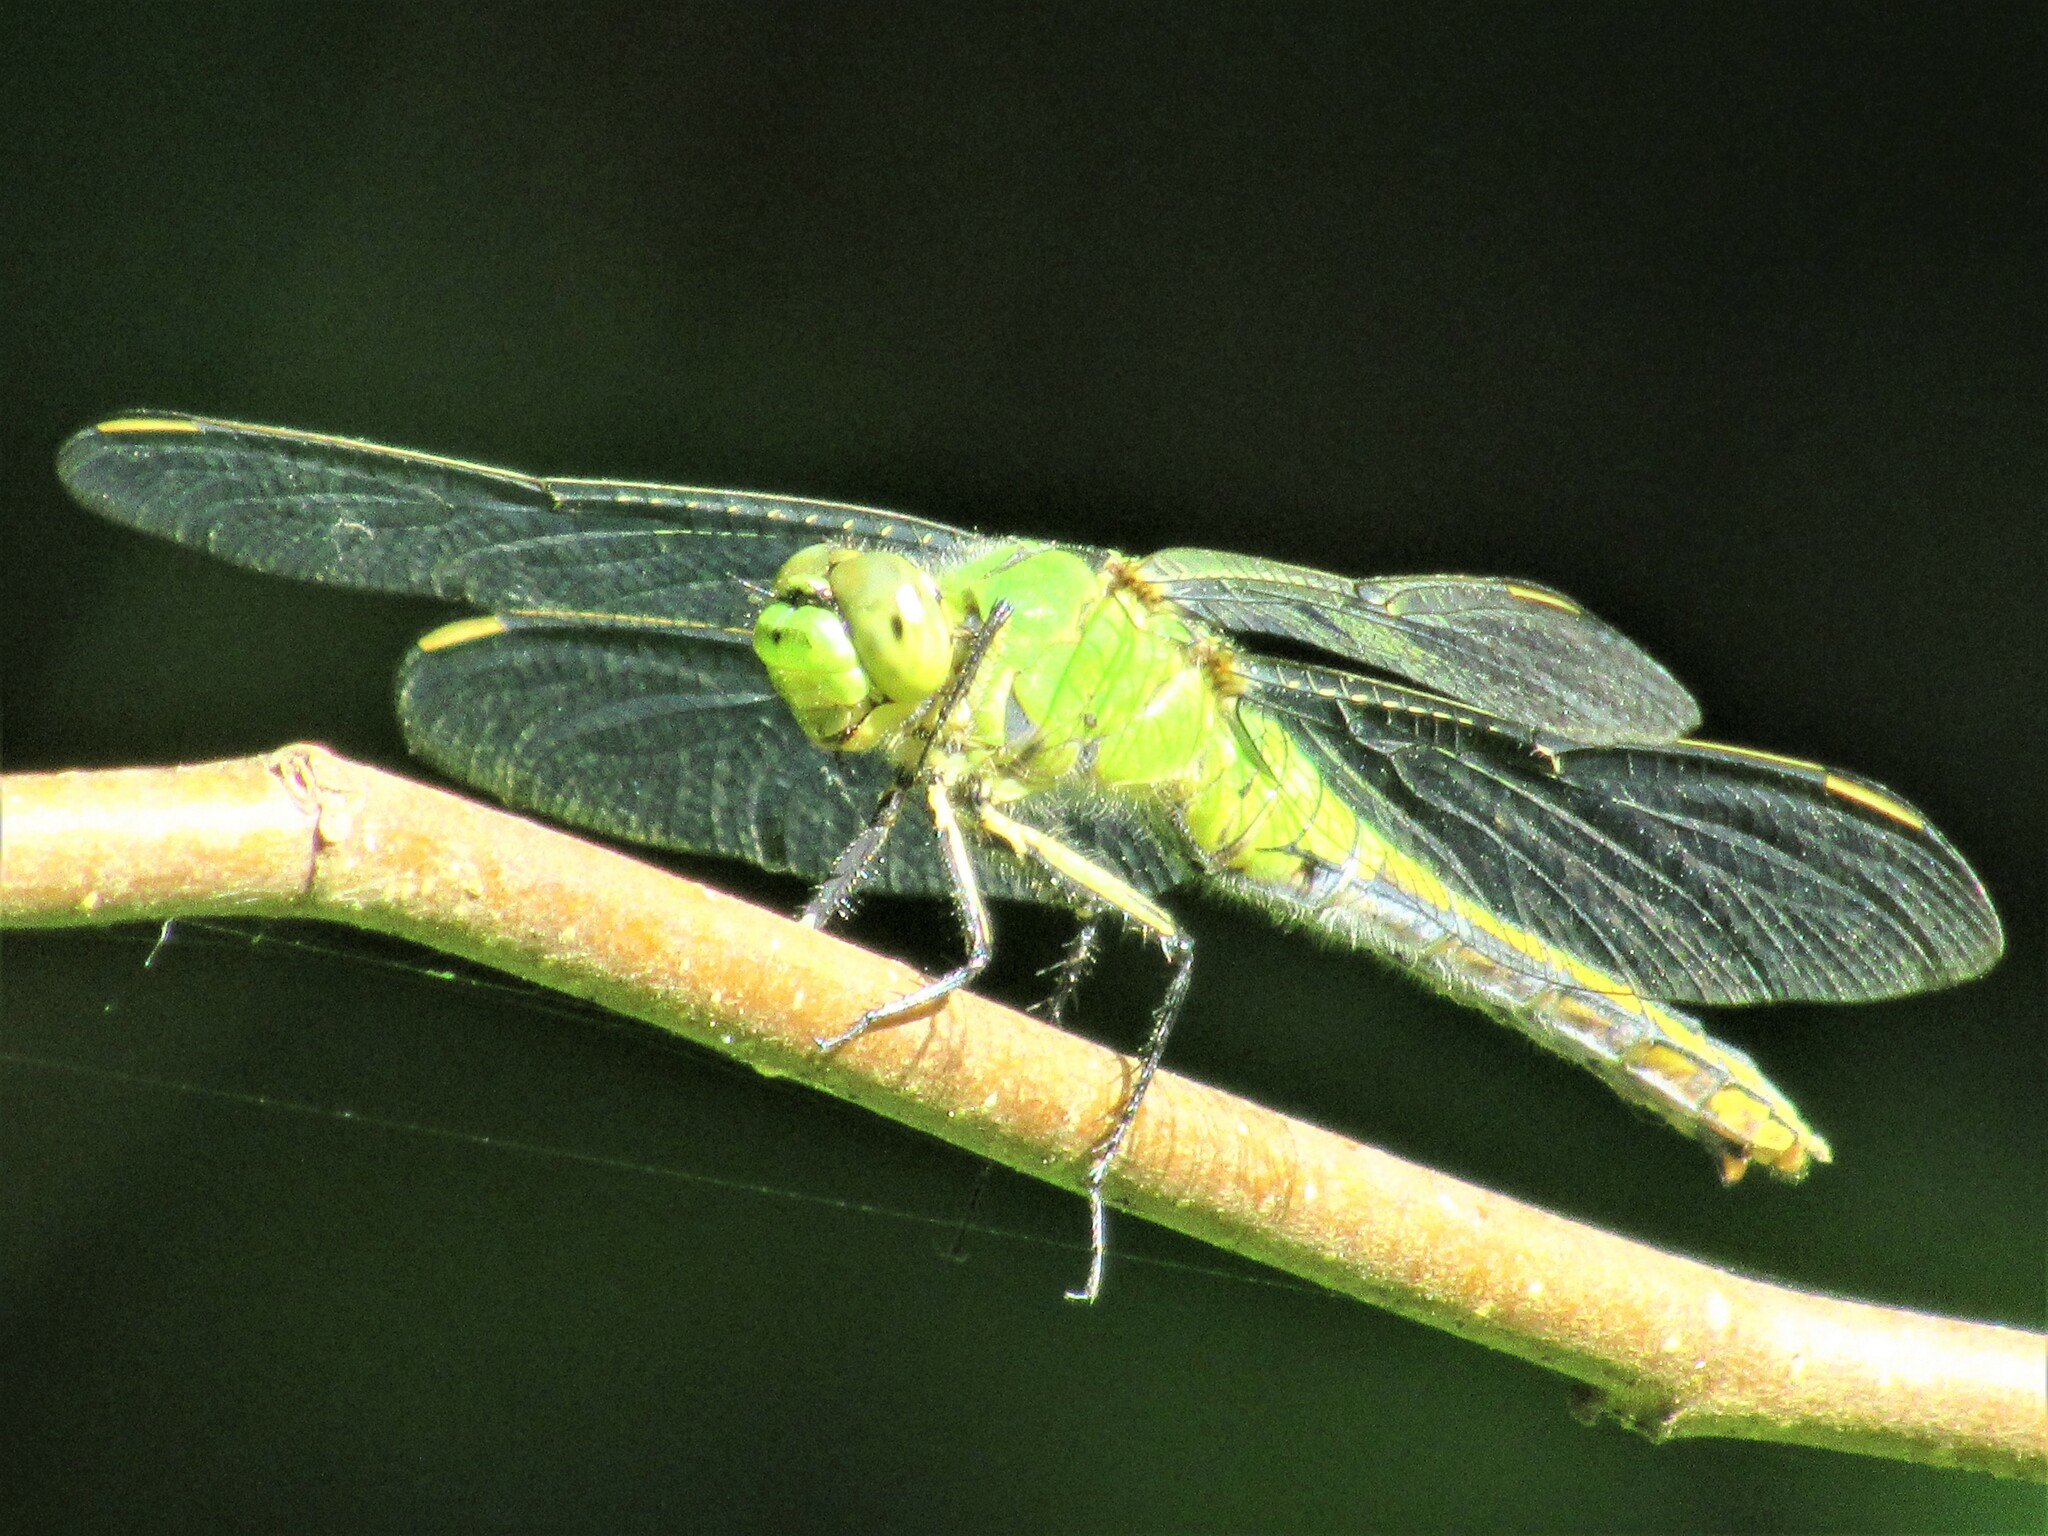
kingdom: Animalia
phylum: Arthropoda
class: Insecta
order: Odonata
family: Libellulidae
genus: Erythemis
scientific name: Erythemis collocata
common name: Western pondhawk
